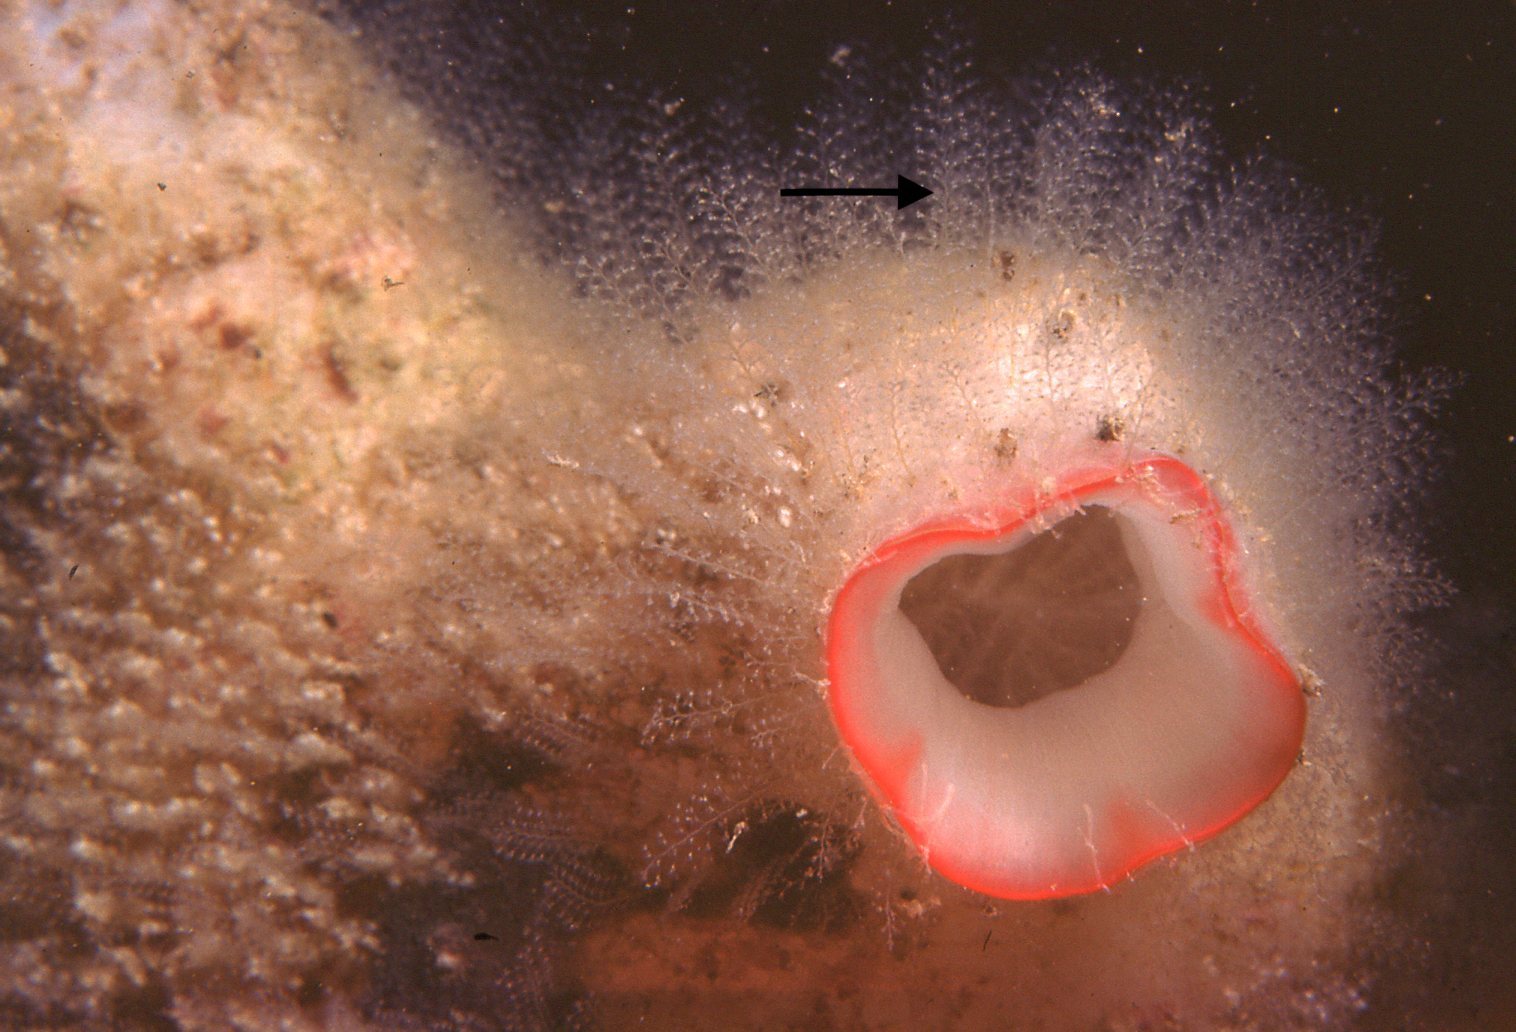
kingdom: Animalia
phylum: Cnidaria
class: Hydrozoa
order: Leptothecata
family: Kirchenpaueriidae
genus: Kirchenpaueria
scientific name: Kirchenpaueria halecioides
